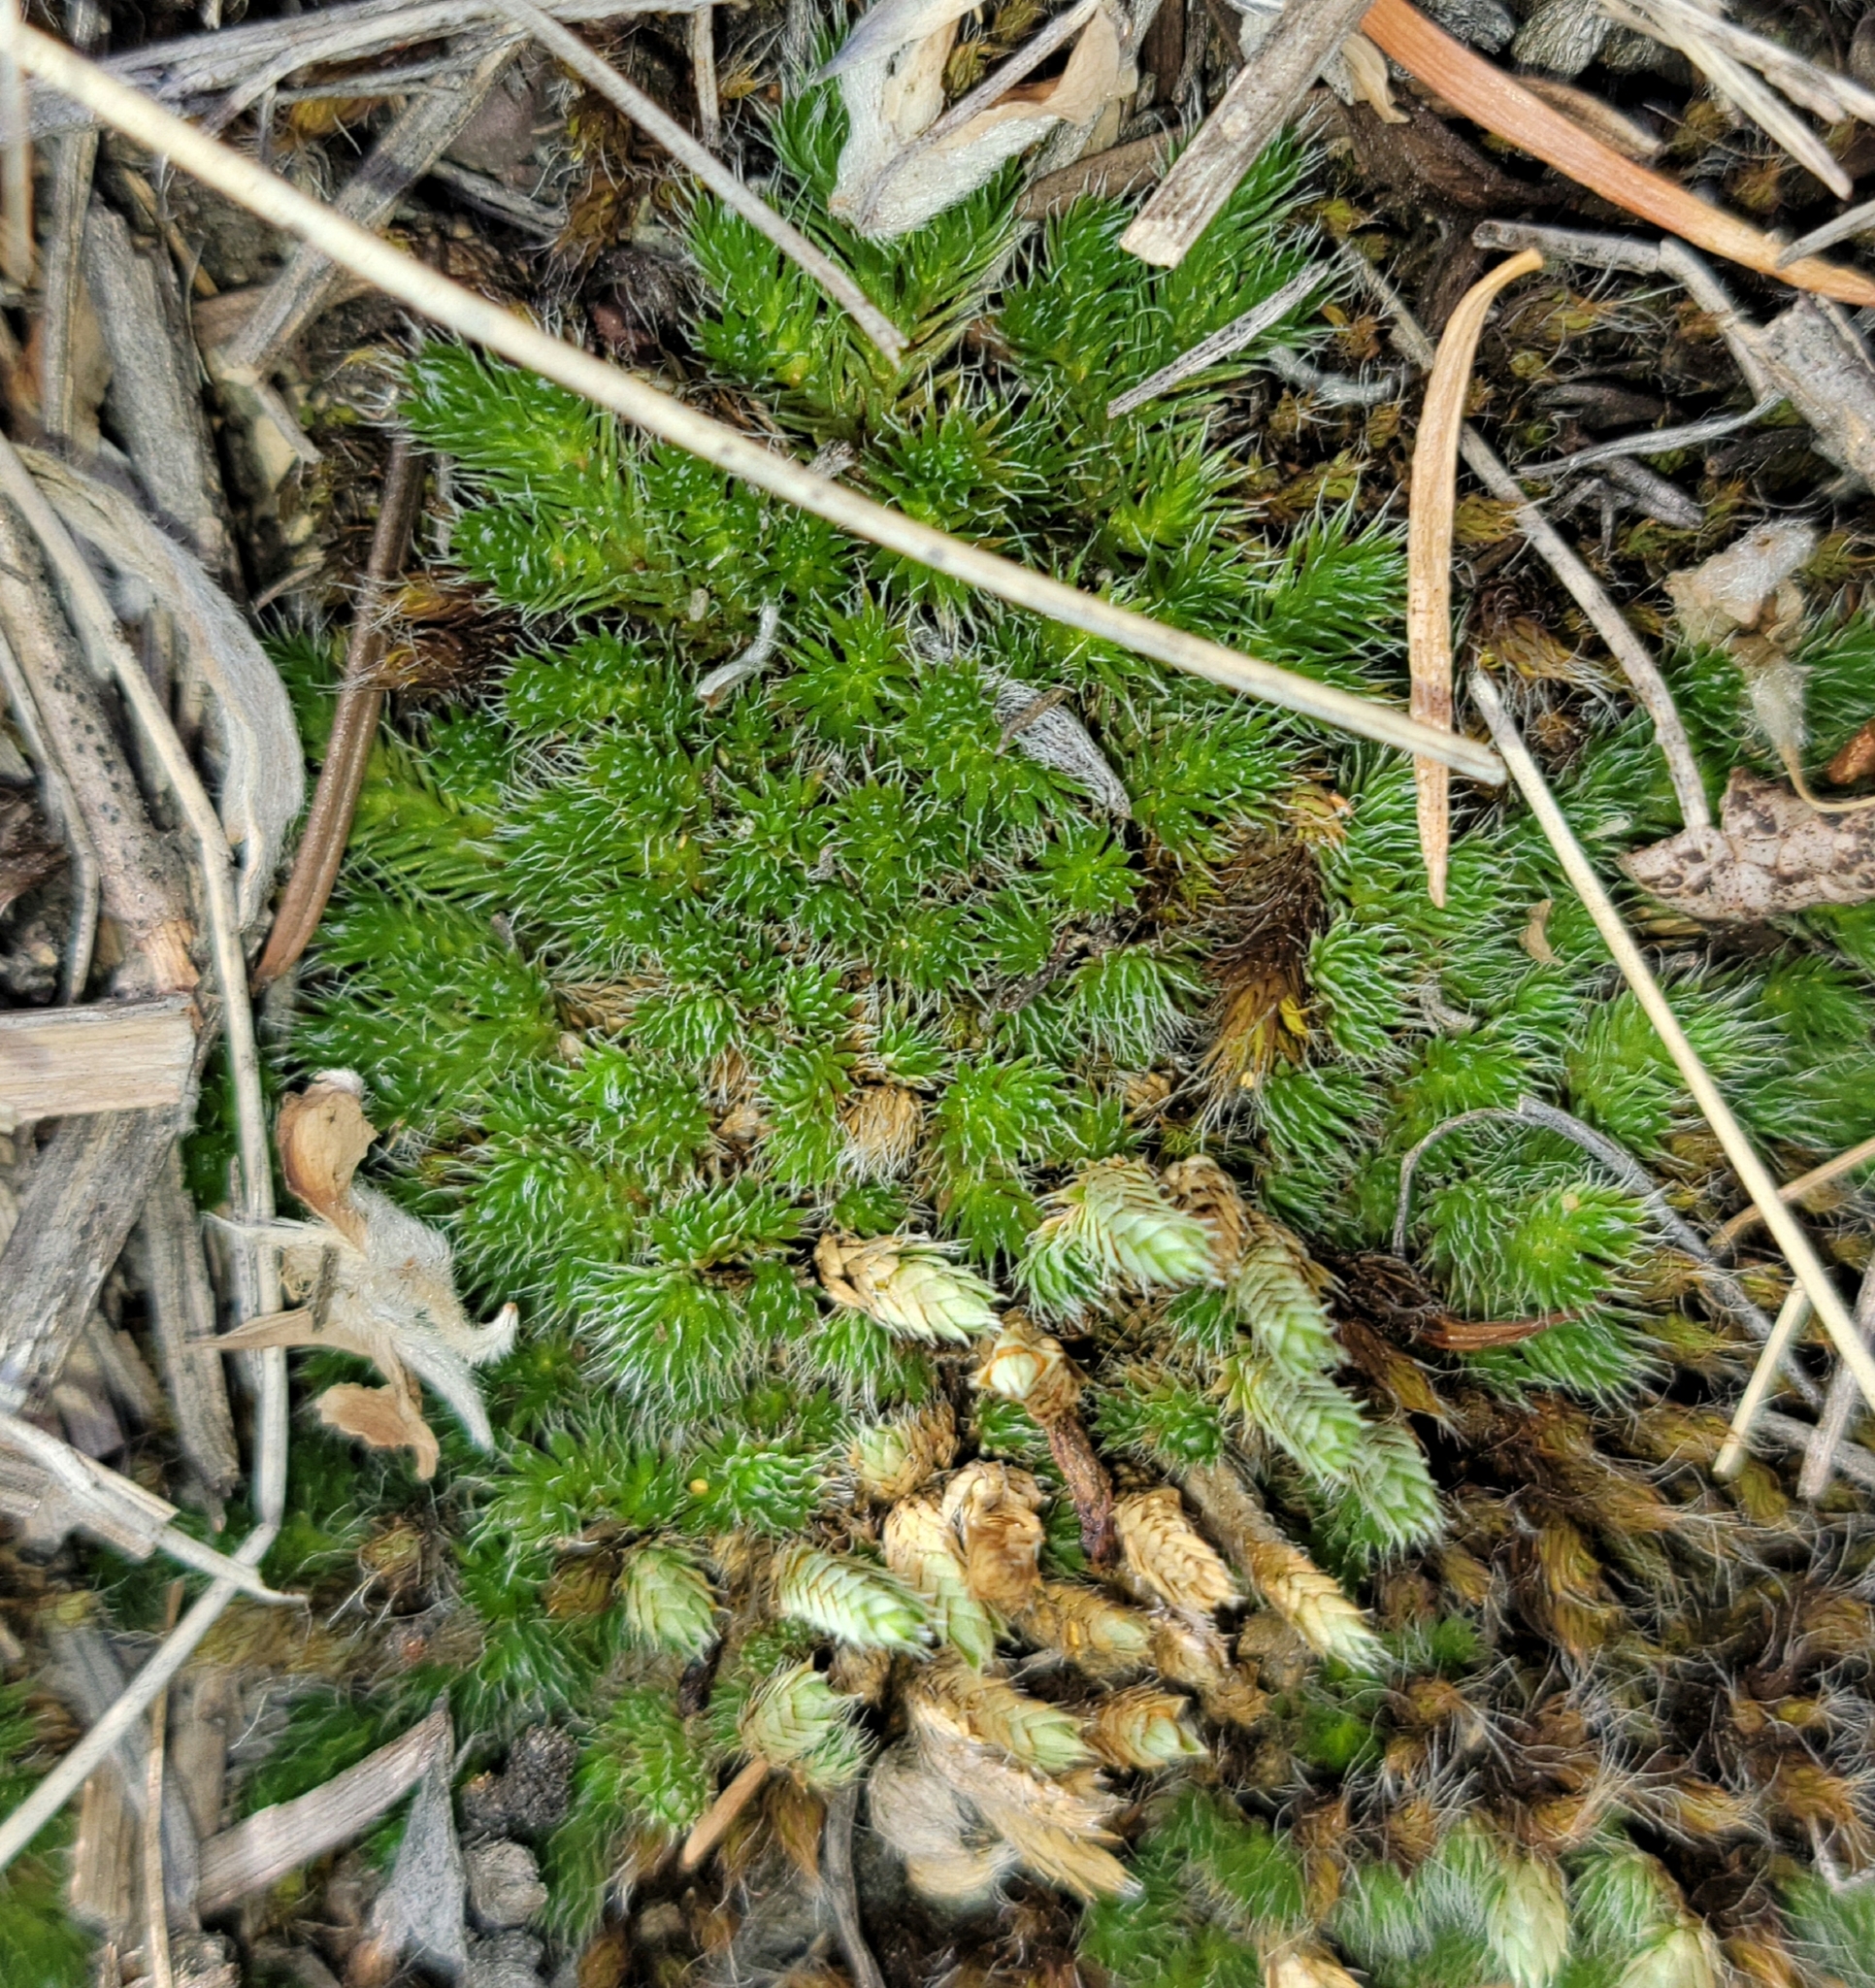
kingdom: Plantae
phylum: Tracheophyta
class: Lycopodiopsida
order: Selaginellales
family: Selaginellaceae
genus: Selaginella
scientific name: Selaginella densa
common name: Mountain spike-moss
